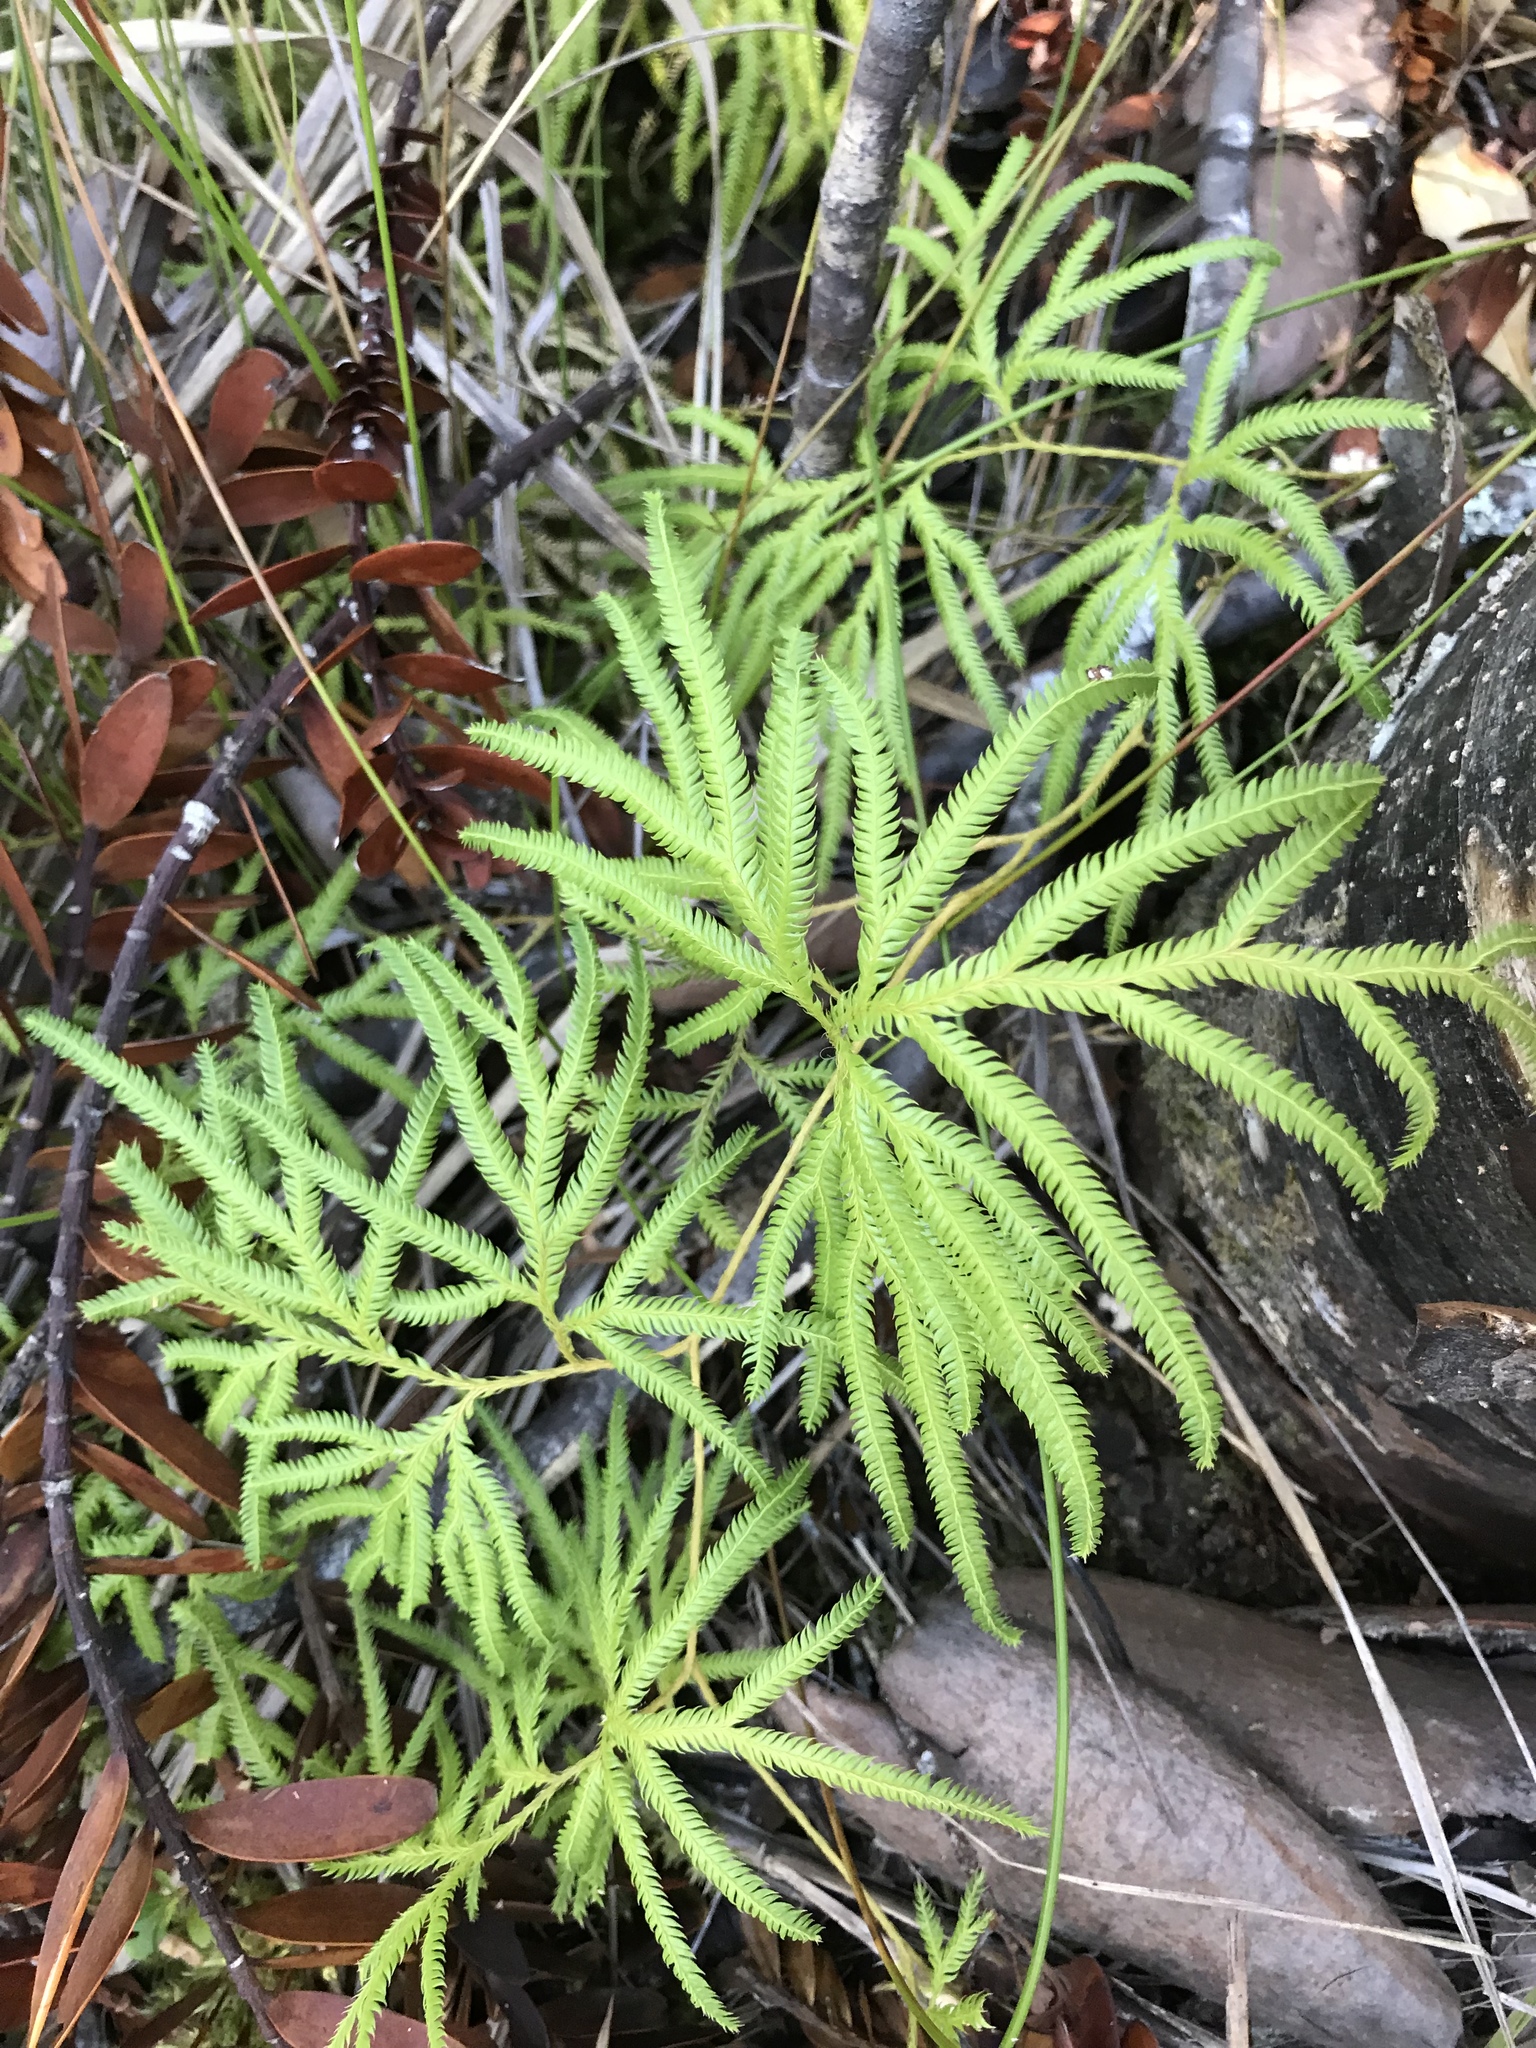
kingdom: Plantae
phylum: Tracheophyta
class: Lycopodiopsida
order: Lycopodiales
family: Lycopodiaceae
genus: Lycopodium
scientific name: Lycopodium volubile
